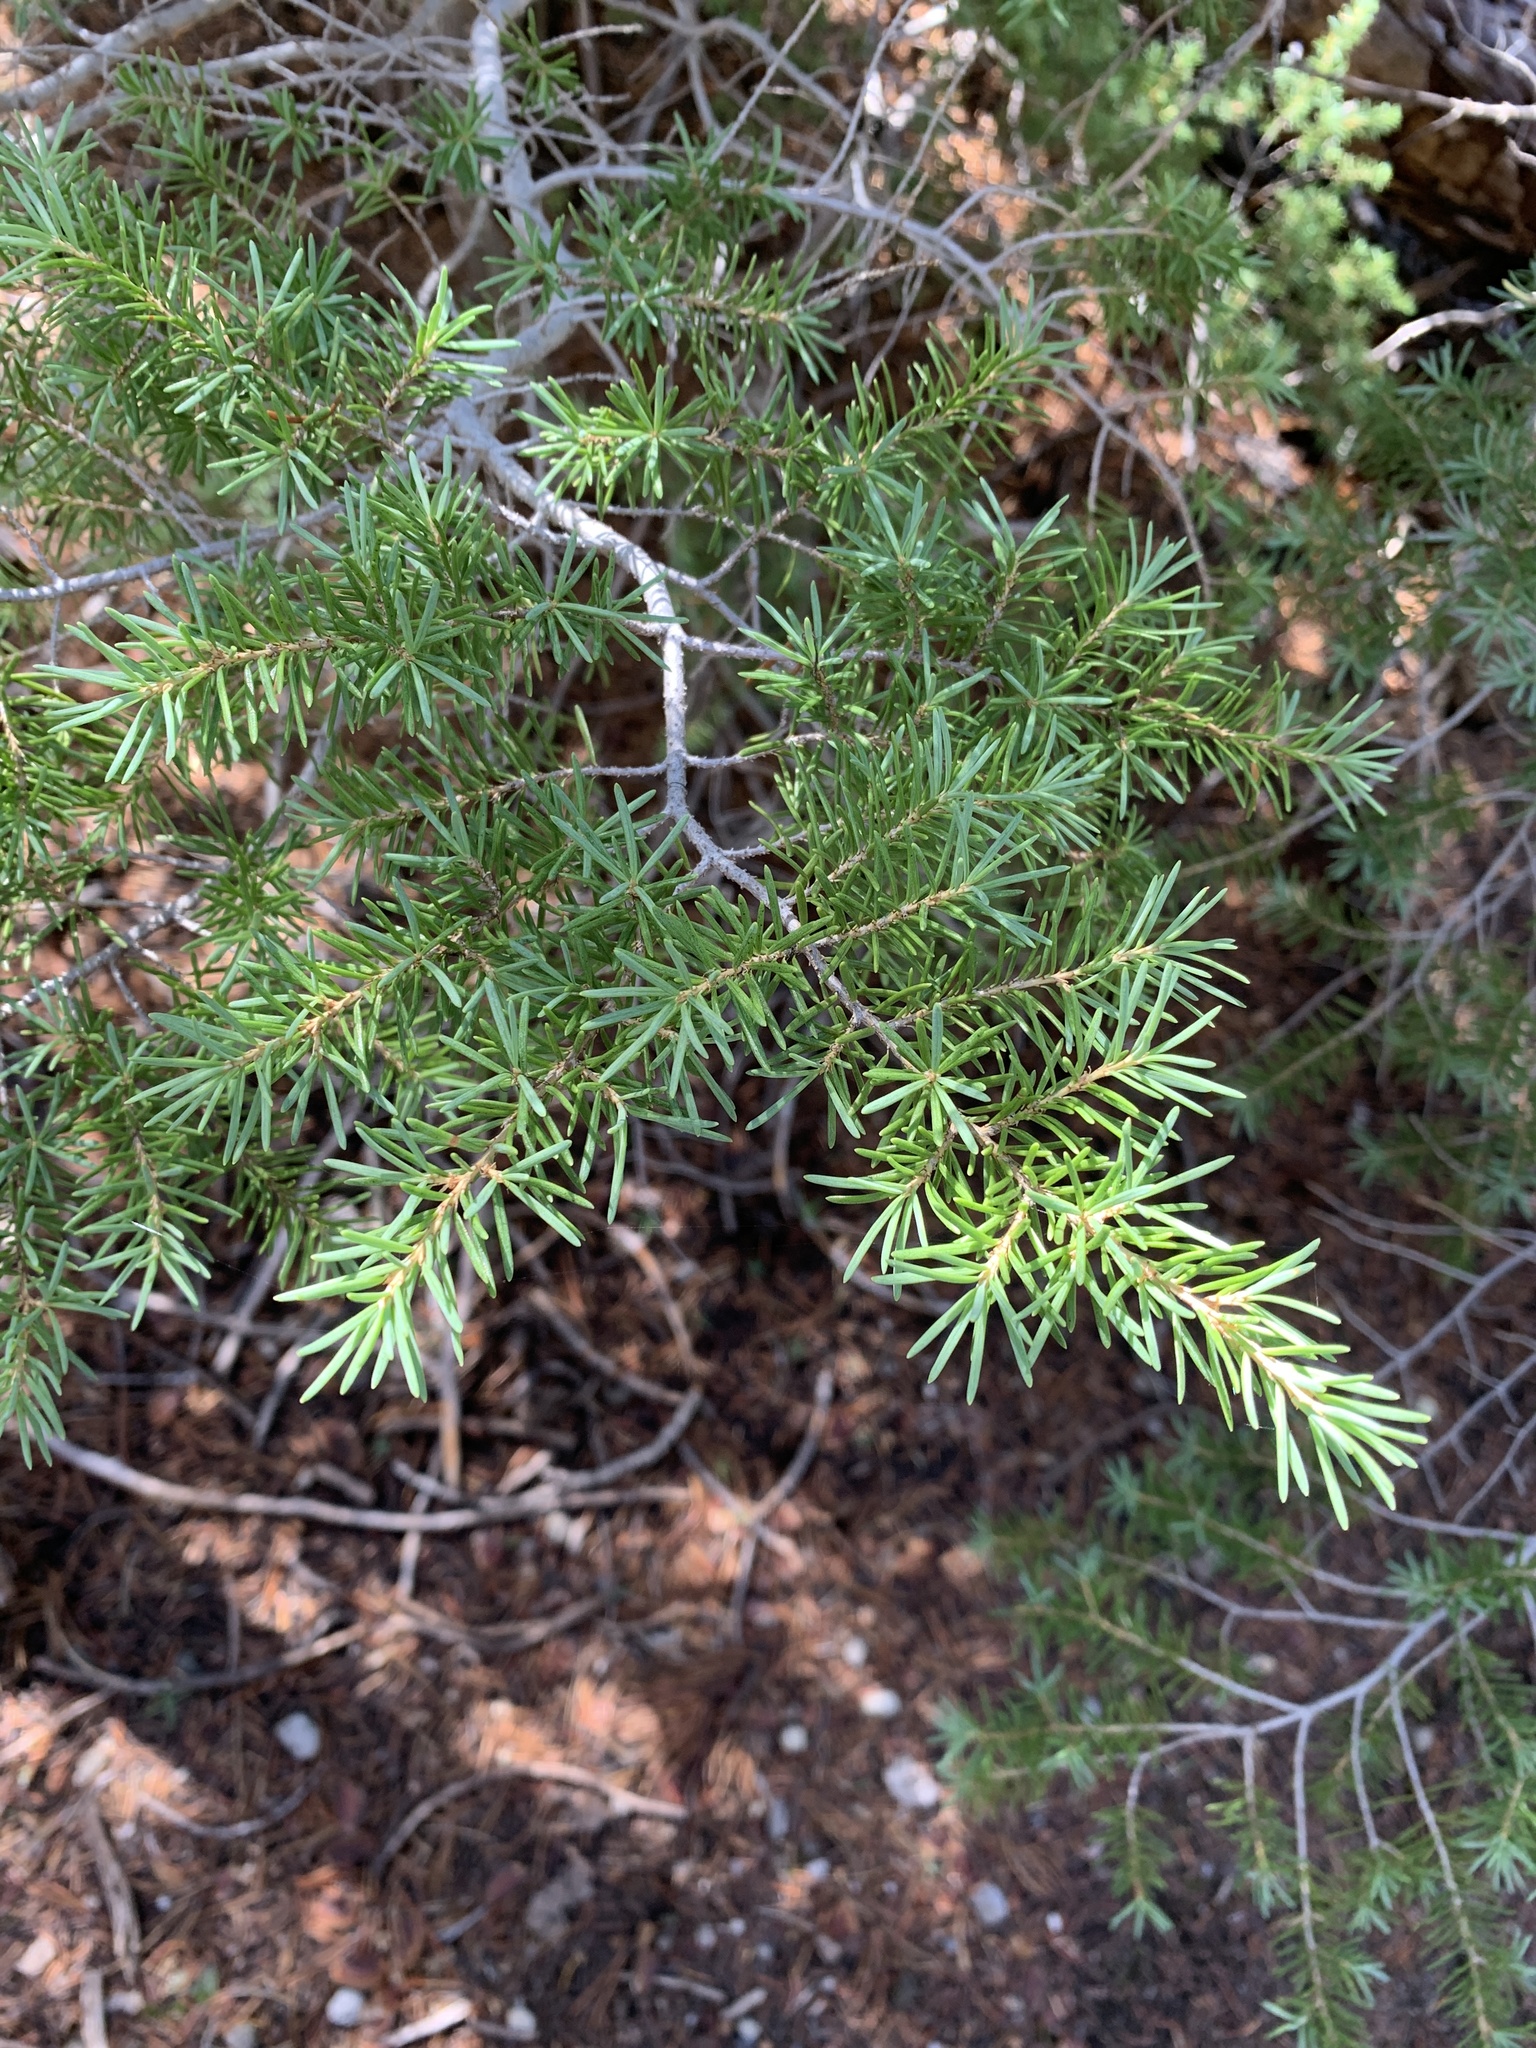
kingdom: Plantae
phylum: Tracheophyta
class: Pinopsida
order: Pinales
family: Pinaceae
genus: Tsuga
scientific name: Tsuga mertensiana
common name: Mountain hemlock
